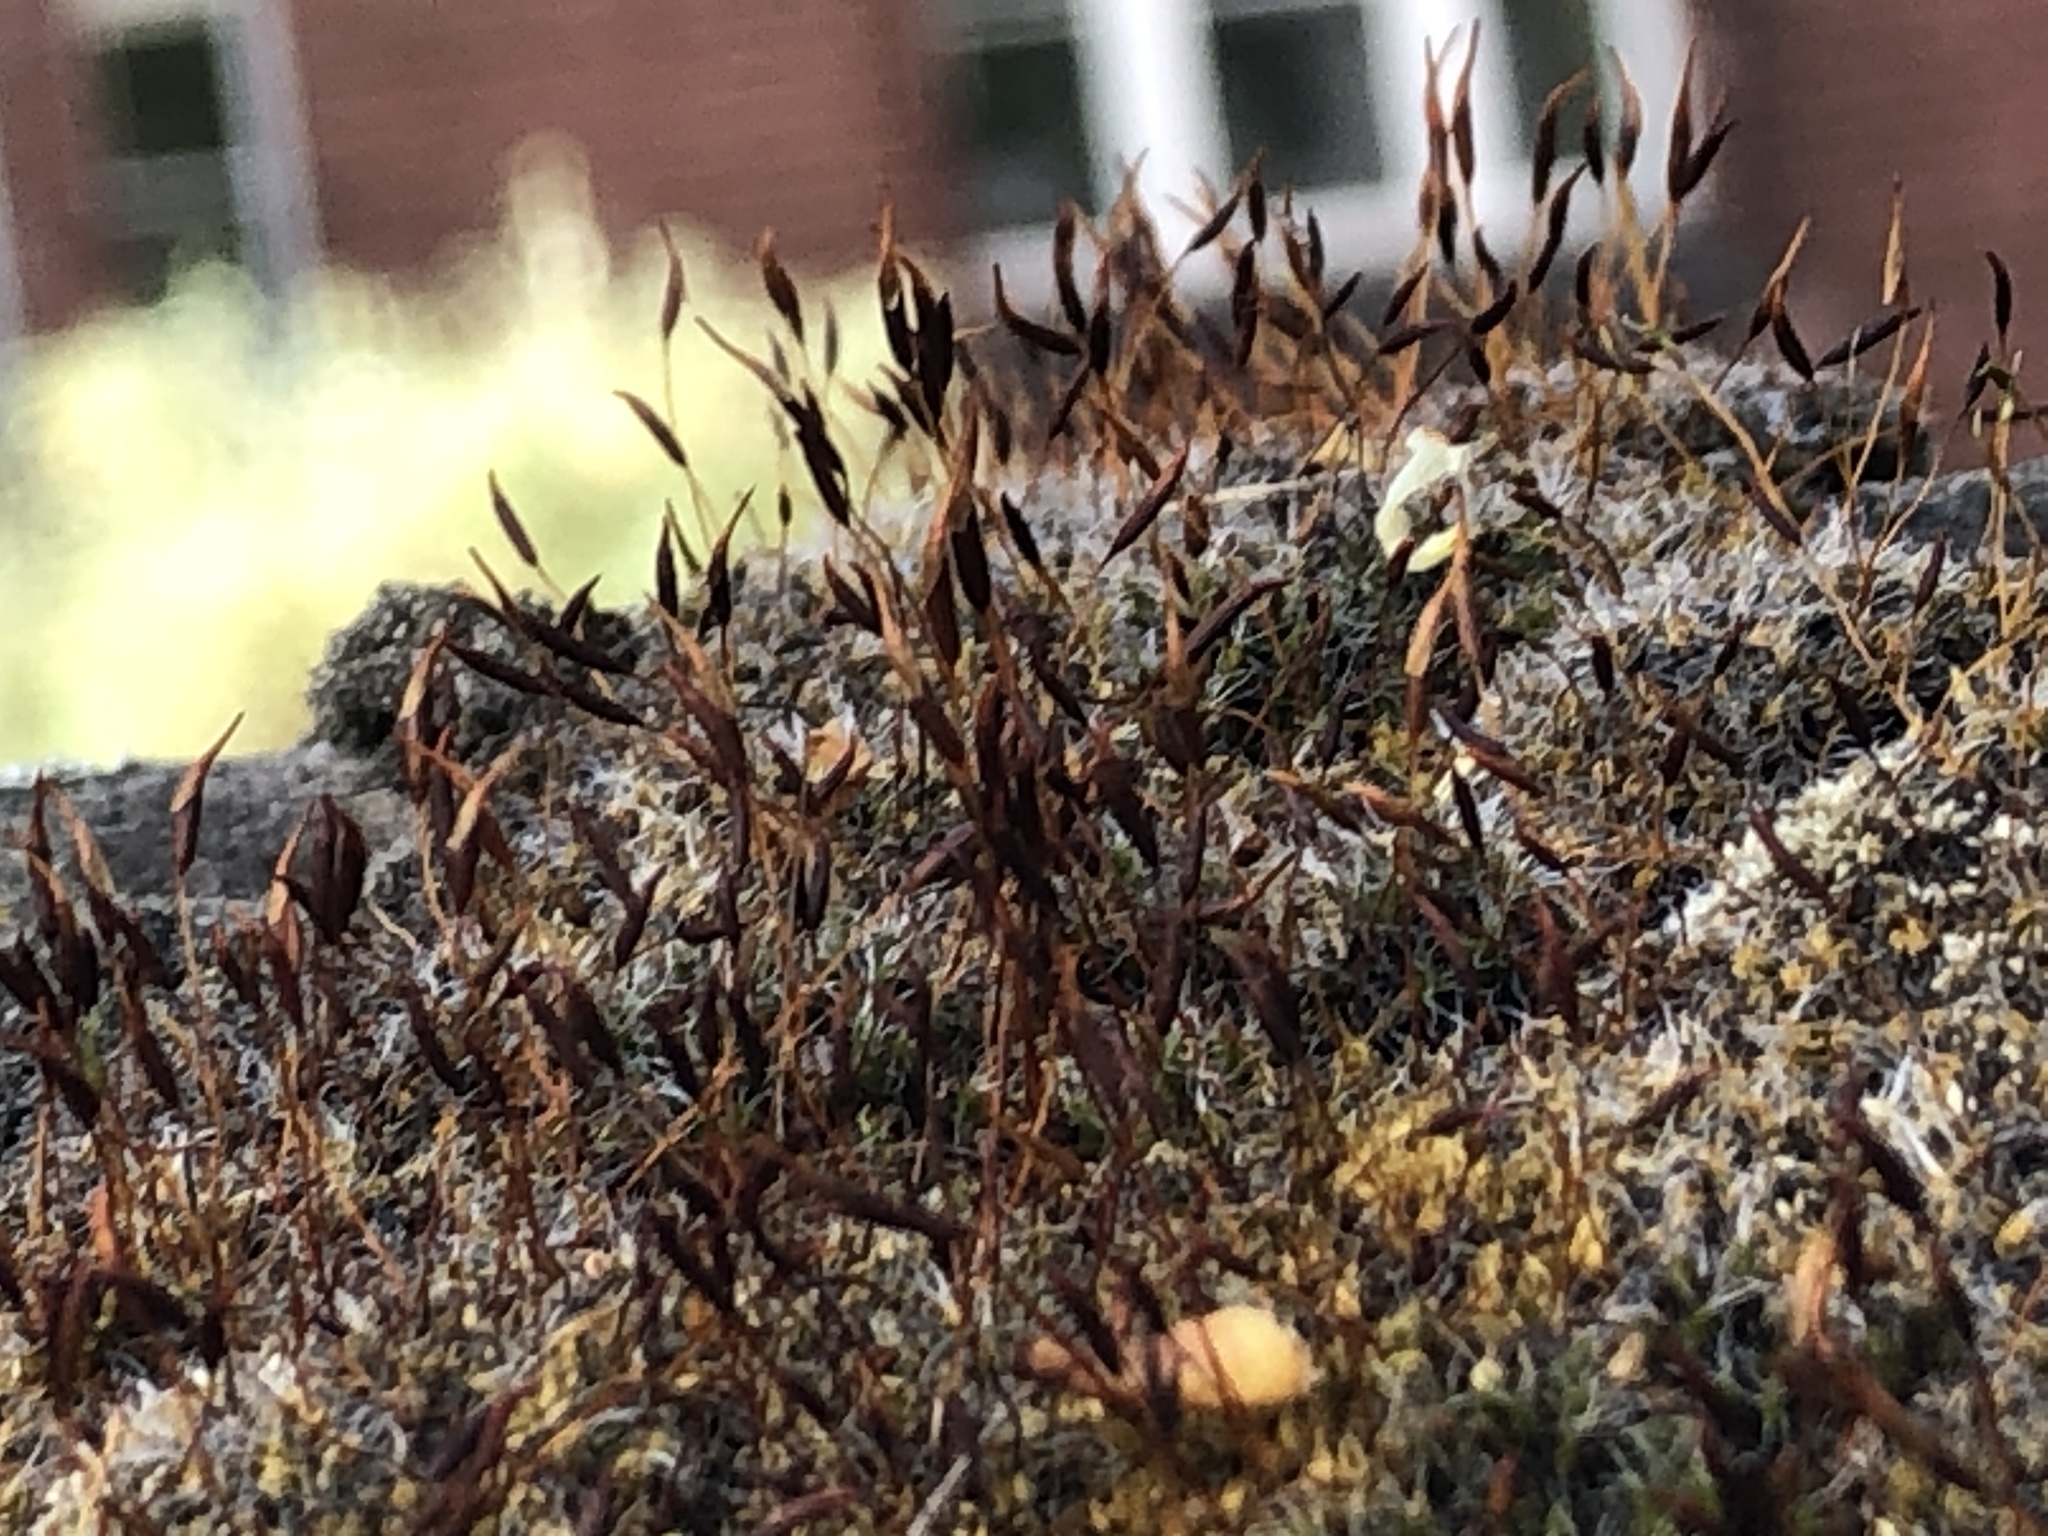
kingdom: Plantae
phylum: Bryophyta
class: Bryopsida
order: Pottiales
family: Pottiaceae
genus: Tortula
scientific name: Tortula muralis
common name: Wall screw-moss
